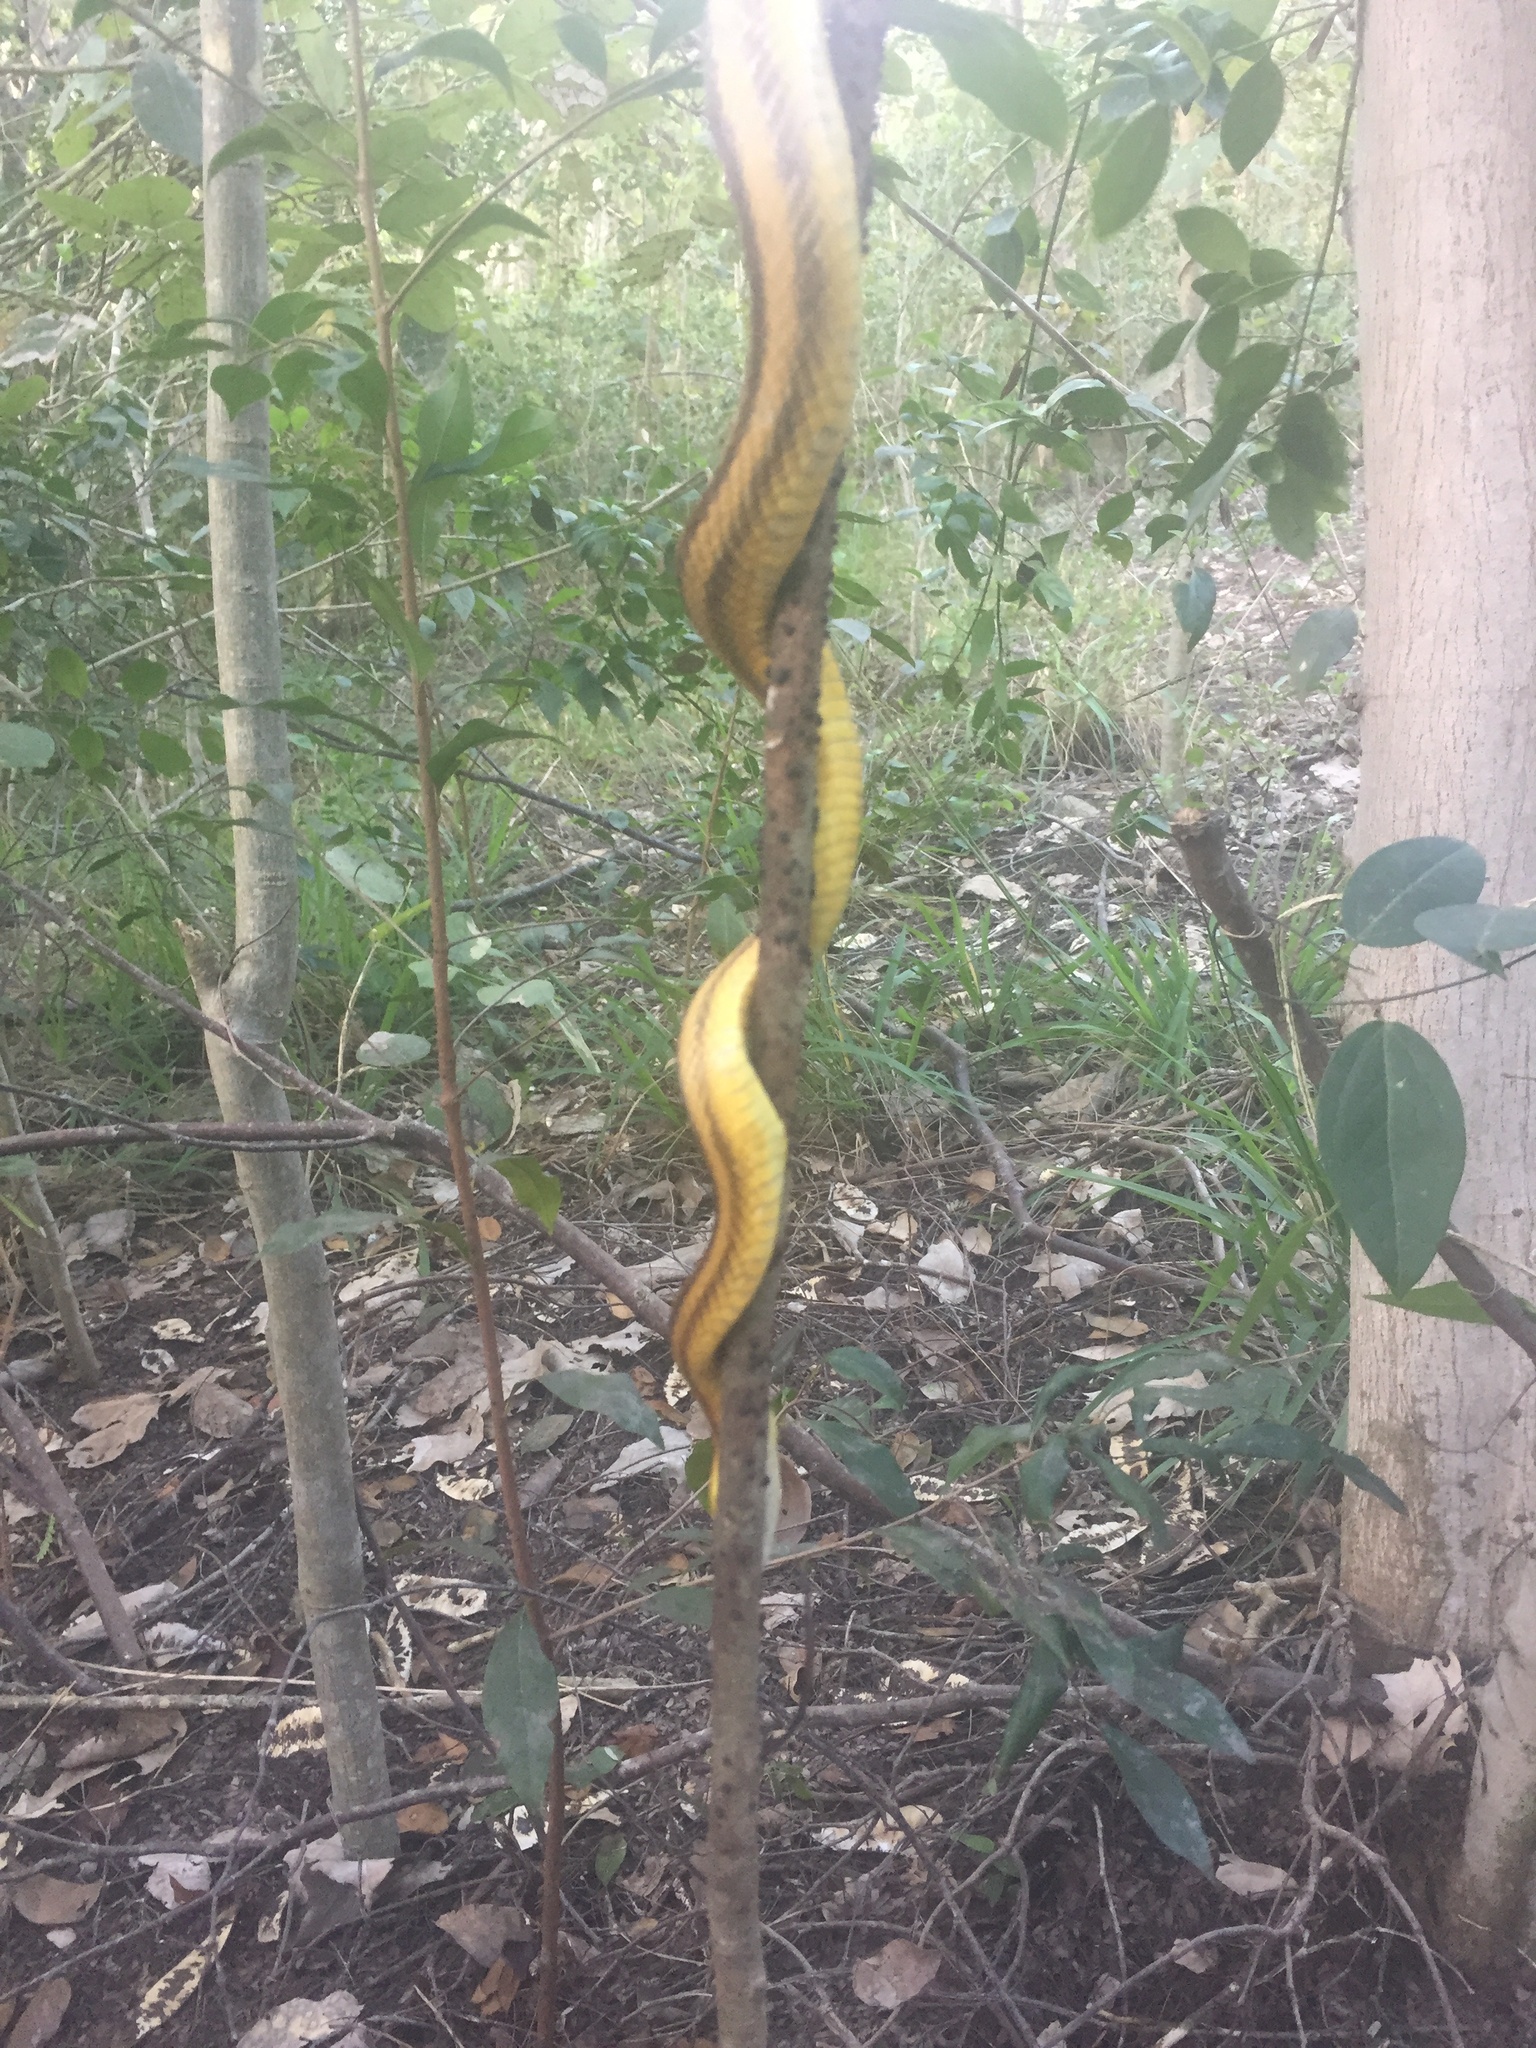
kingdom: Animalia
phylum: Chordata
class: Squamata
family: Colubridae
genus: Pantherophis
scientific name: Pantherophis alleghaniensis
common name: Eastern rat snake
